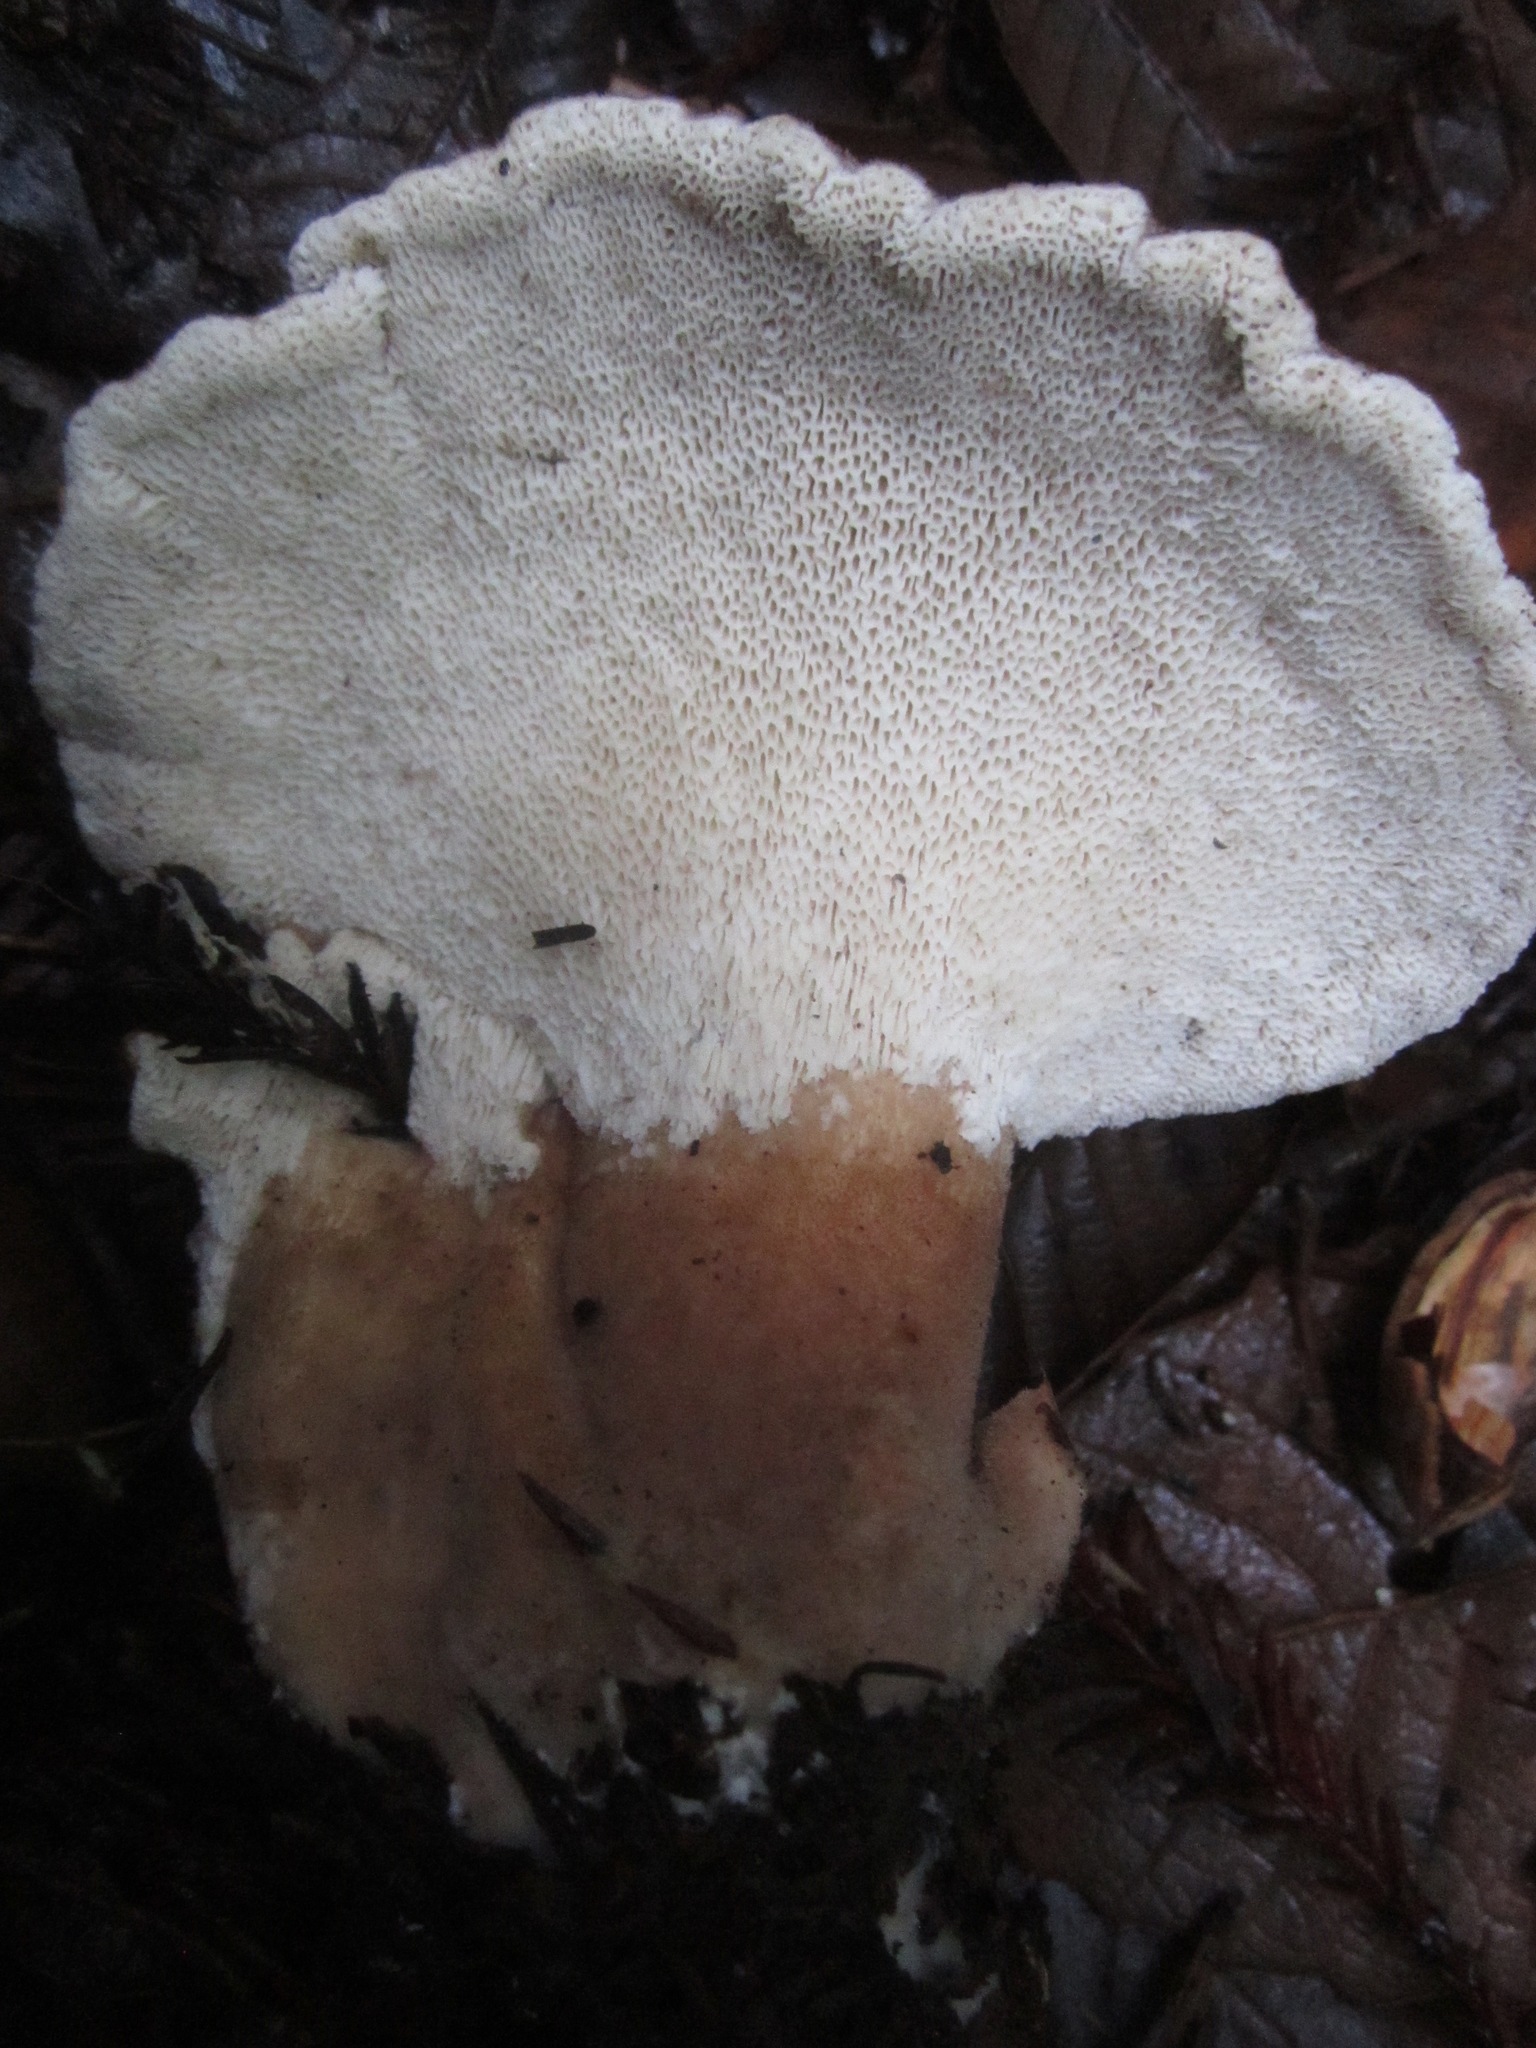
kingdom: Fungi
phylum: Basidiomycota
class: Agaricomycetes
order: Polyporales
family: Dacryobolaceae
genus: Jahnoporus
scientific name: Jahnoporus hirtus
